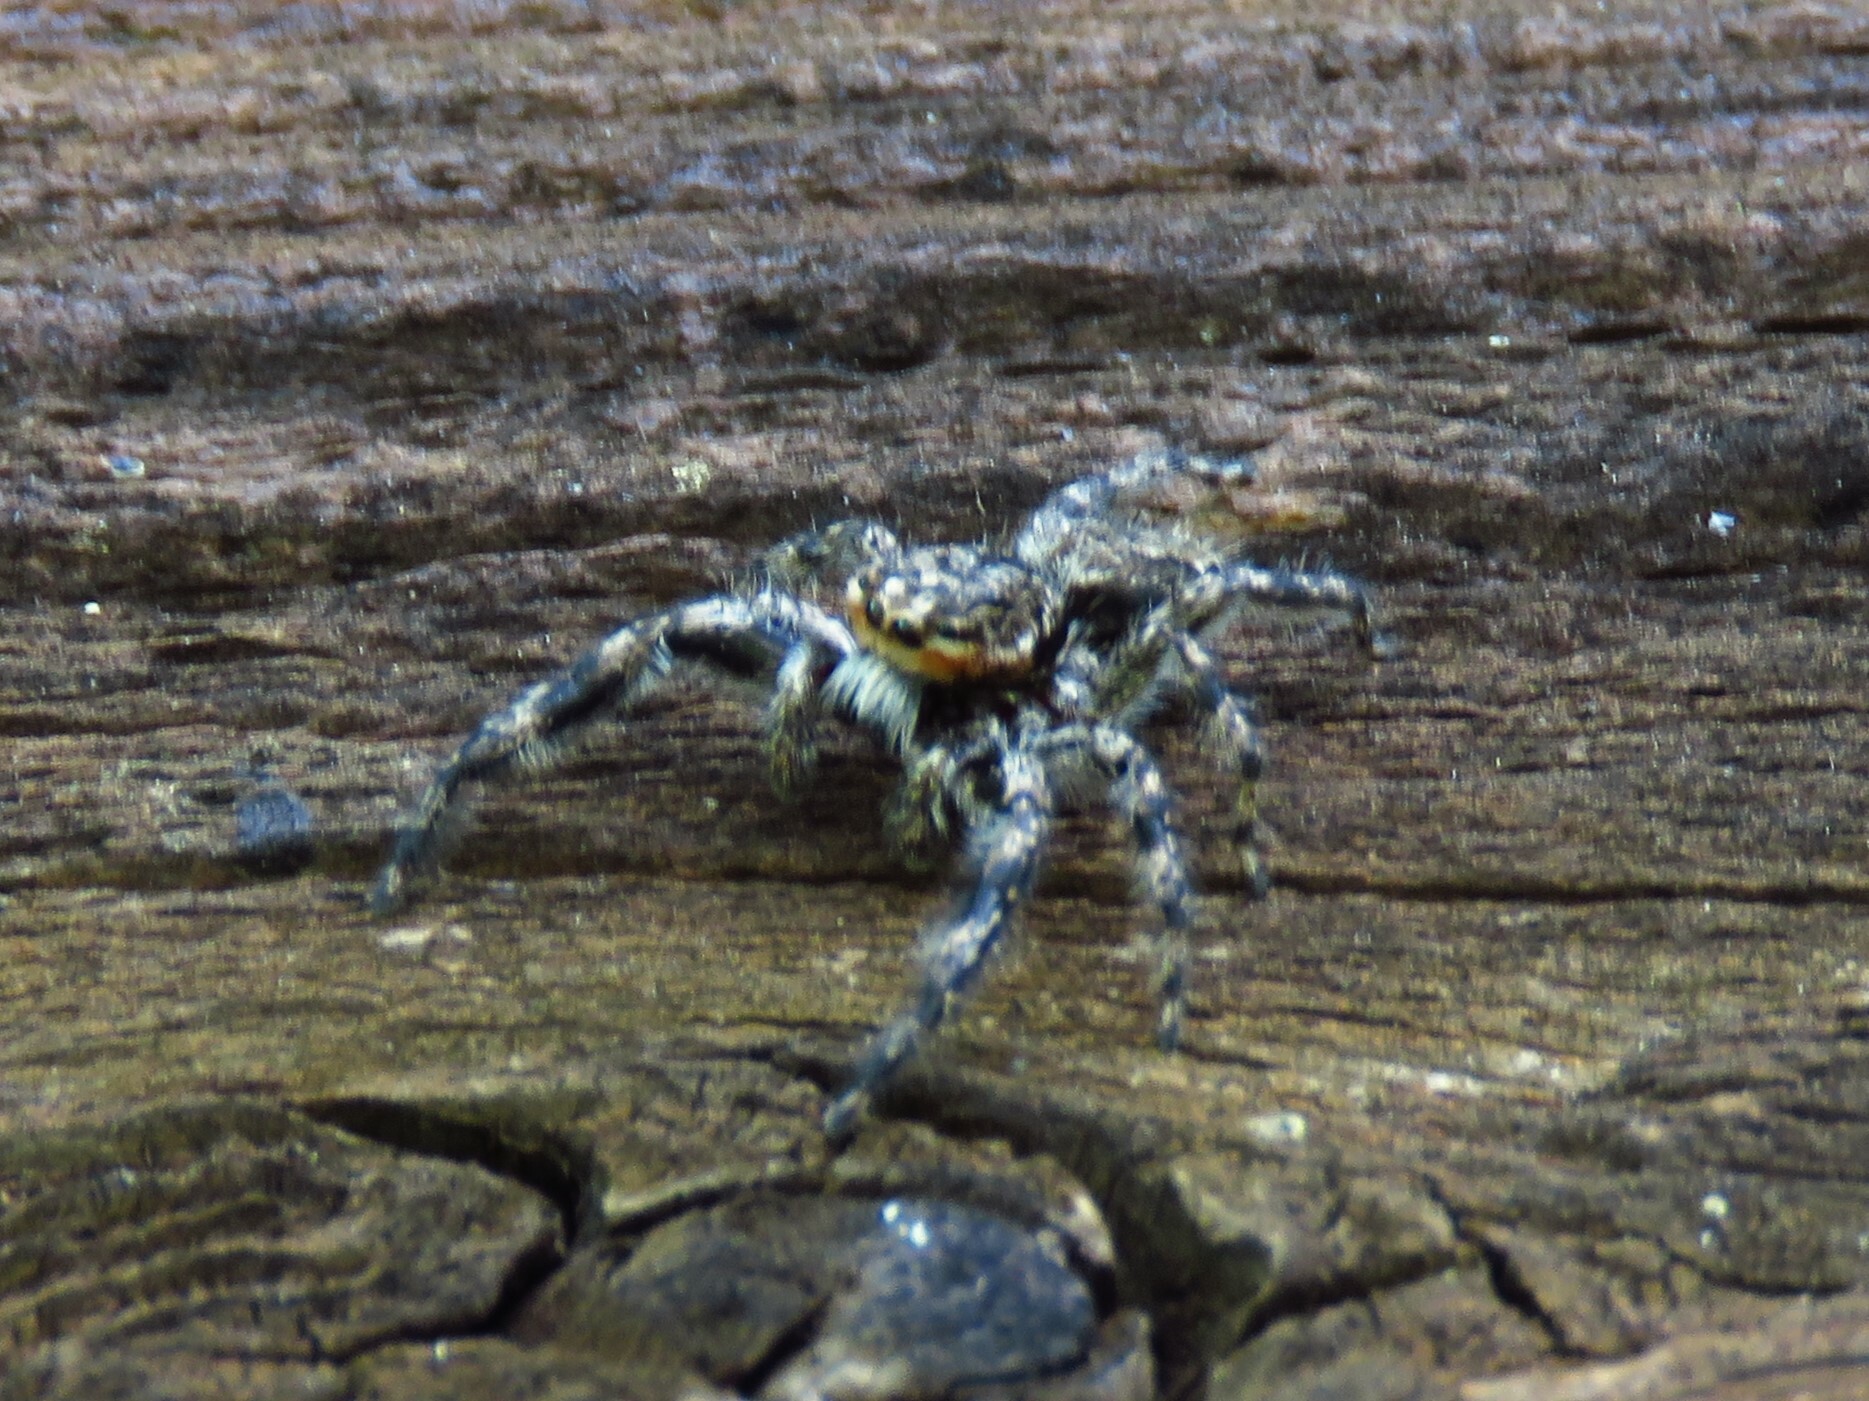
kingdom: Animalia
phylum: Arthropoda
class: Arachnida
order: Araneae
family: Salticidae
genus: Platycryptus
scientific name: Platycryptus undatus
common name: Tan jumping spider
